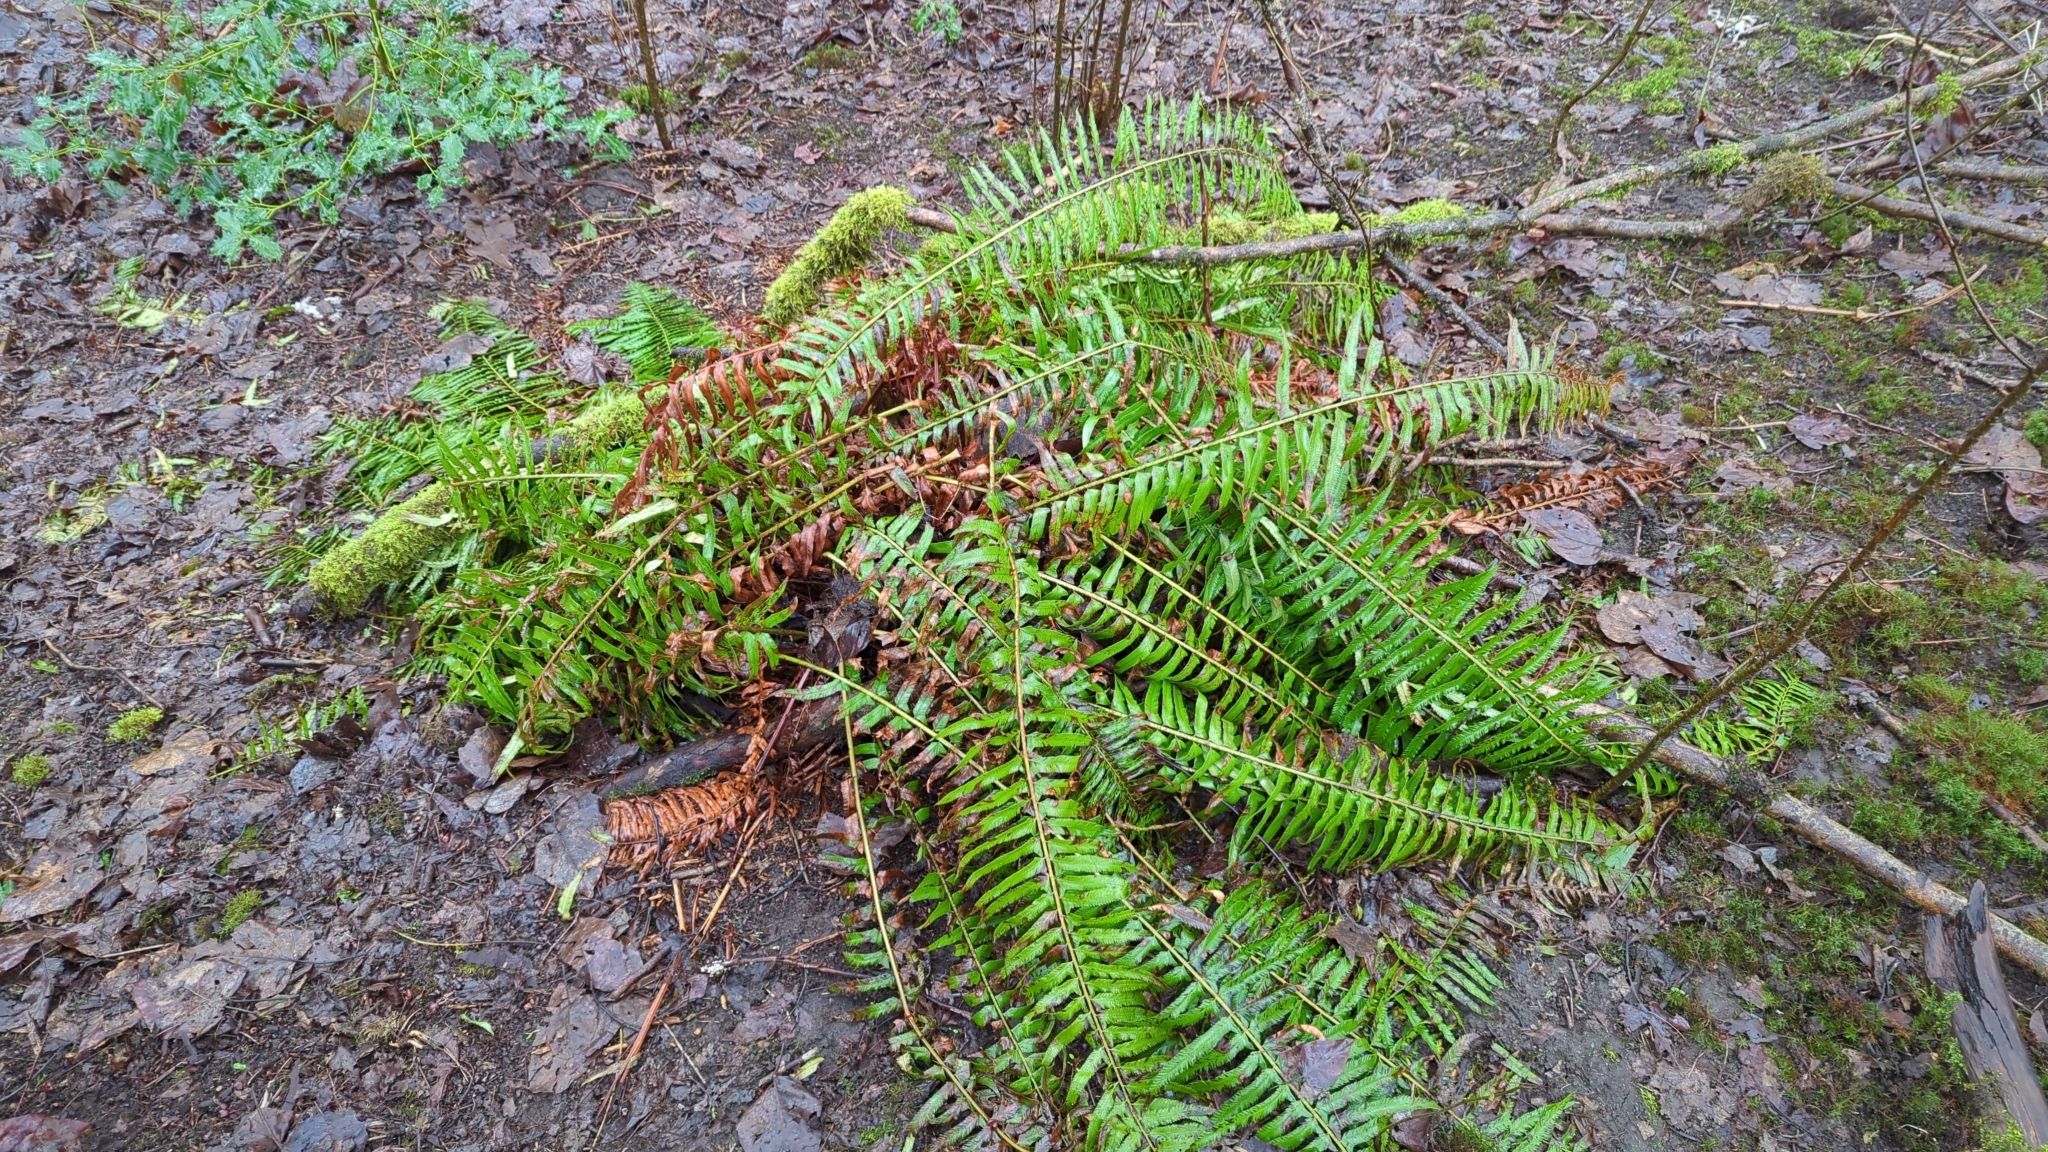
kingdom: Plantae
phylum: Tracheophyta
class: Polypodiopsida
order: Polypodiales
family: Dryopteridaceae
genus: Polystichum
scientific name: Polystichum munitum
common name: Western sword-fern
